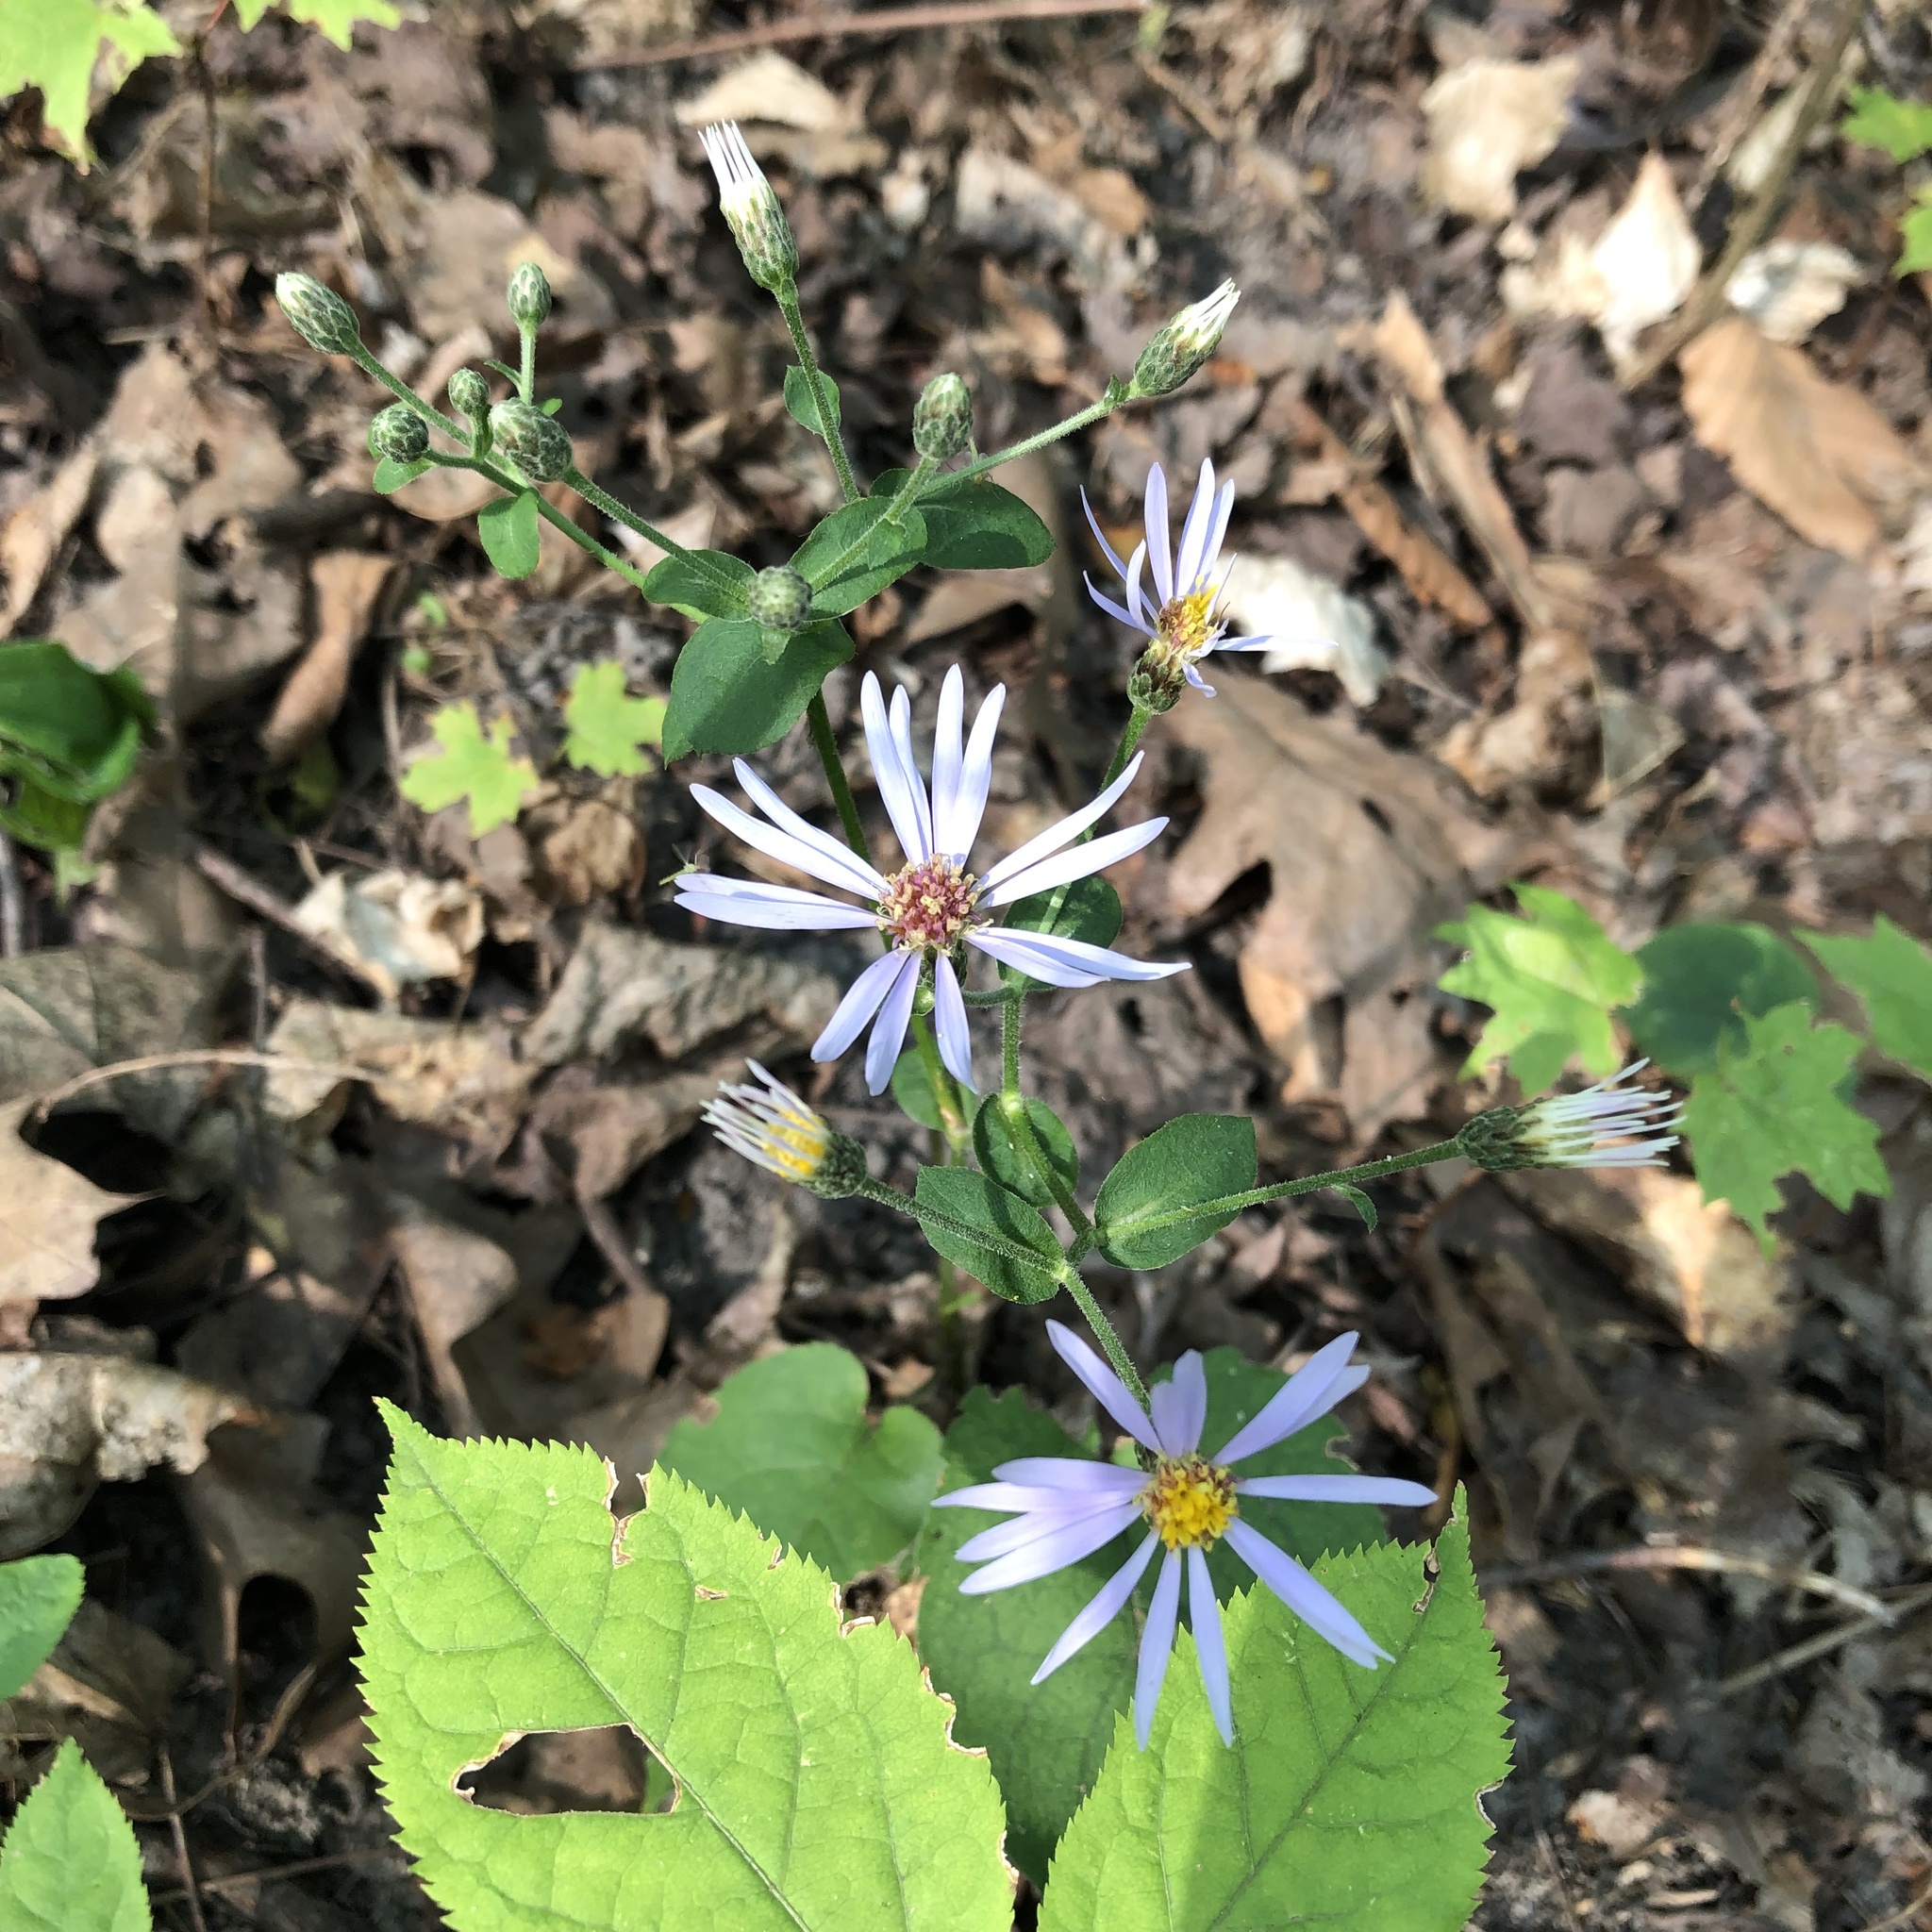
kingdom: Plantae
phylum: Tracheophyta
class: Magnoliopsida
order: Asterales
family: Asteraceae
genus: Eurybia
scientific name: Eurybia macrophylla
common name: Big-leaved aster
